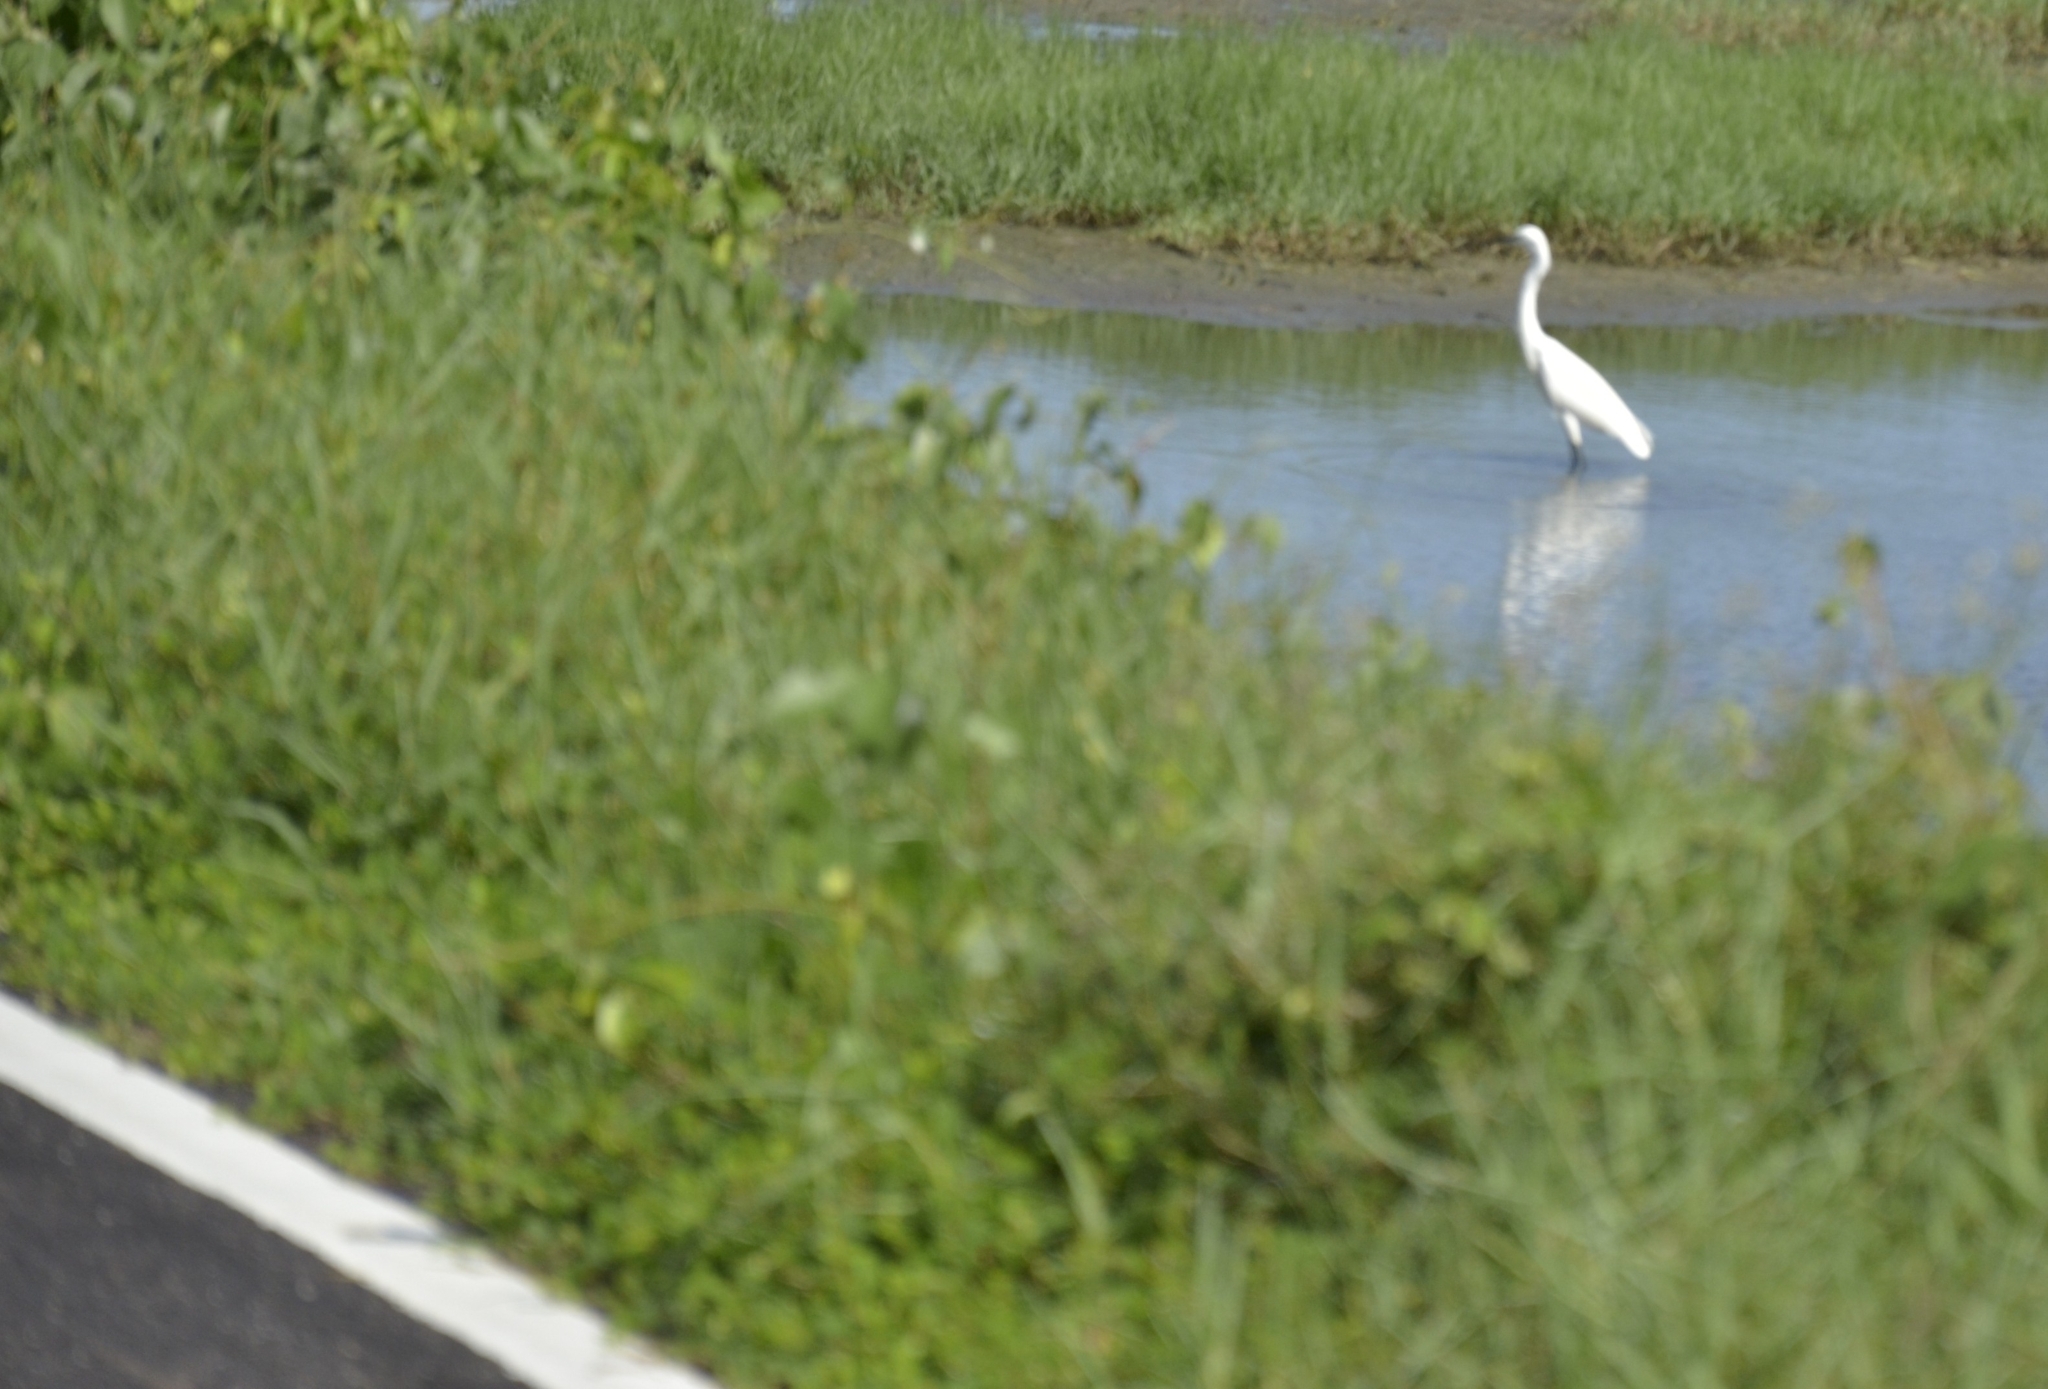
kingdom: Animalia
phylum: Chordata
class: Aves
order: Pelecaniformes
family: Ardeidae
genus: Ardea
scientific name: Ardea alba
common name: Great egret
